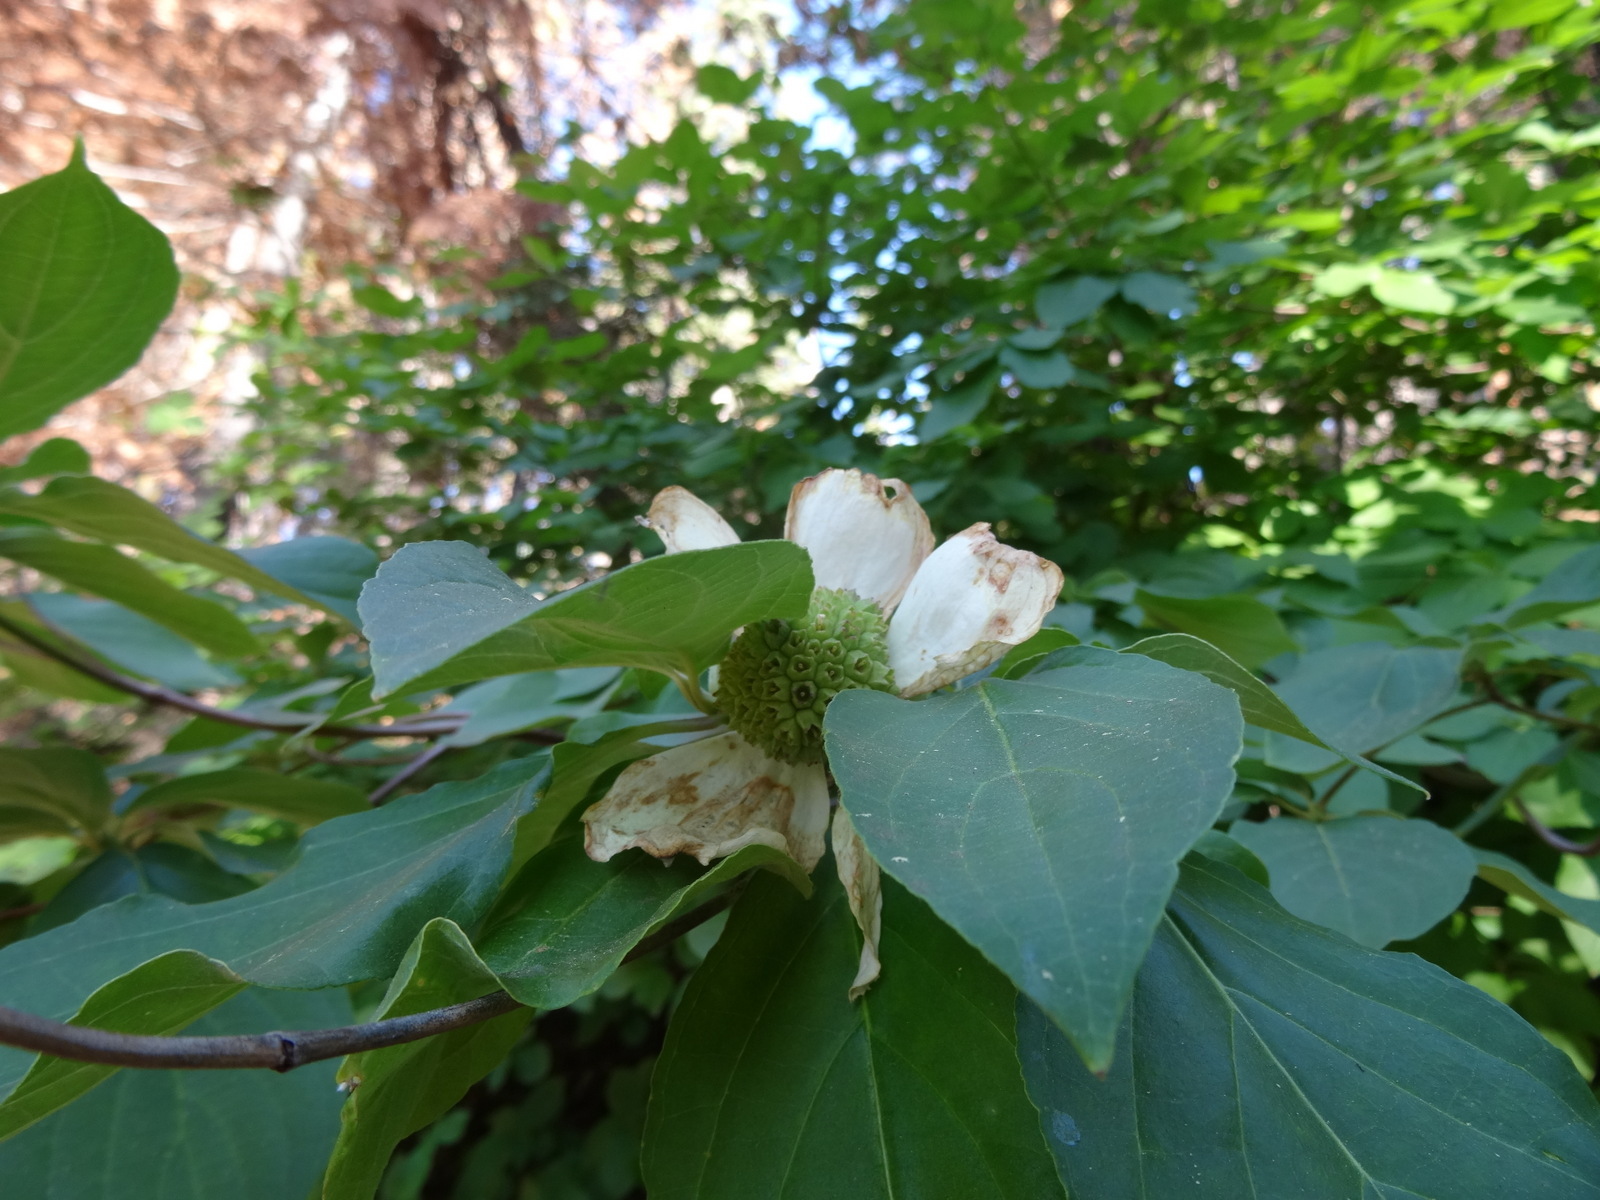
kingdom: Plantae
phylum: Tracheophyta
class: Magnoliopsida
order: Cornales
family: Cornaceae
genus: Cornus
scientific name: Cornus nuttallii
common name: Pacific dogwood
